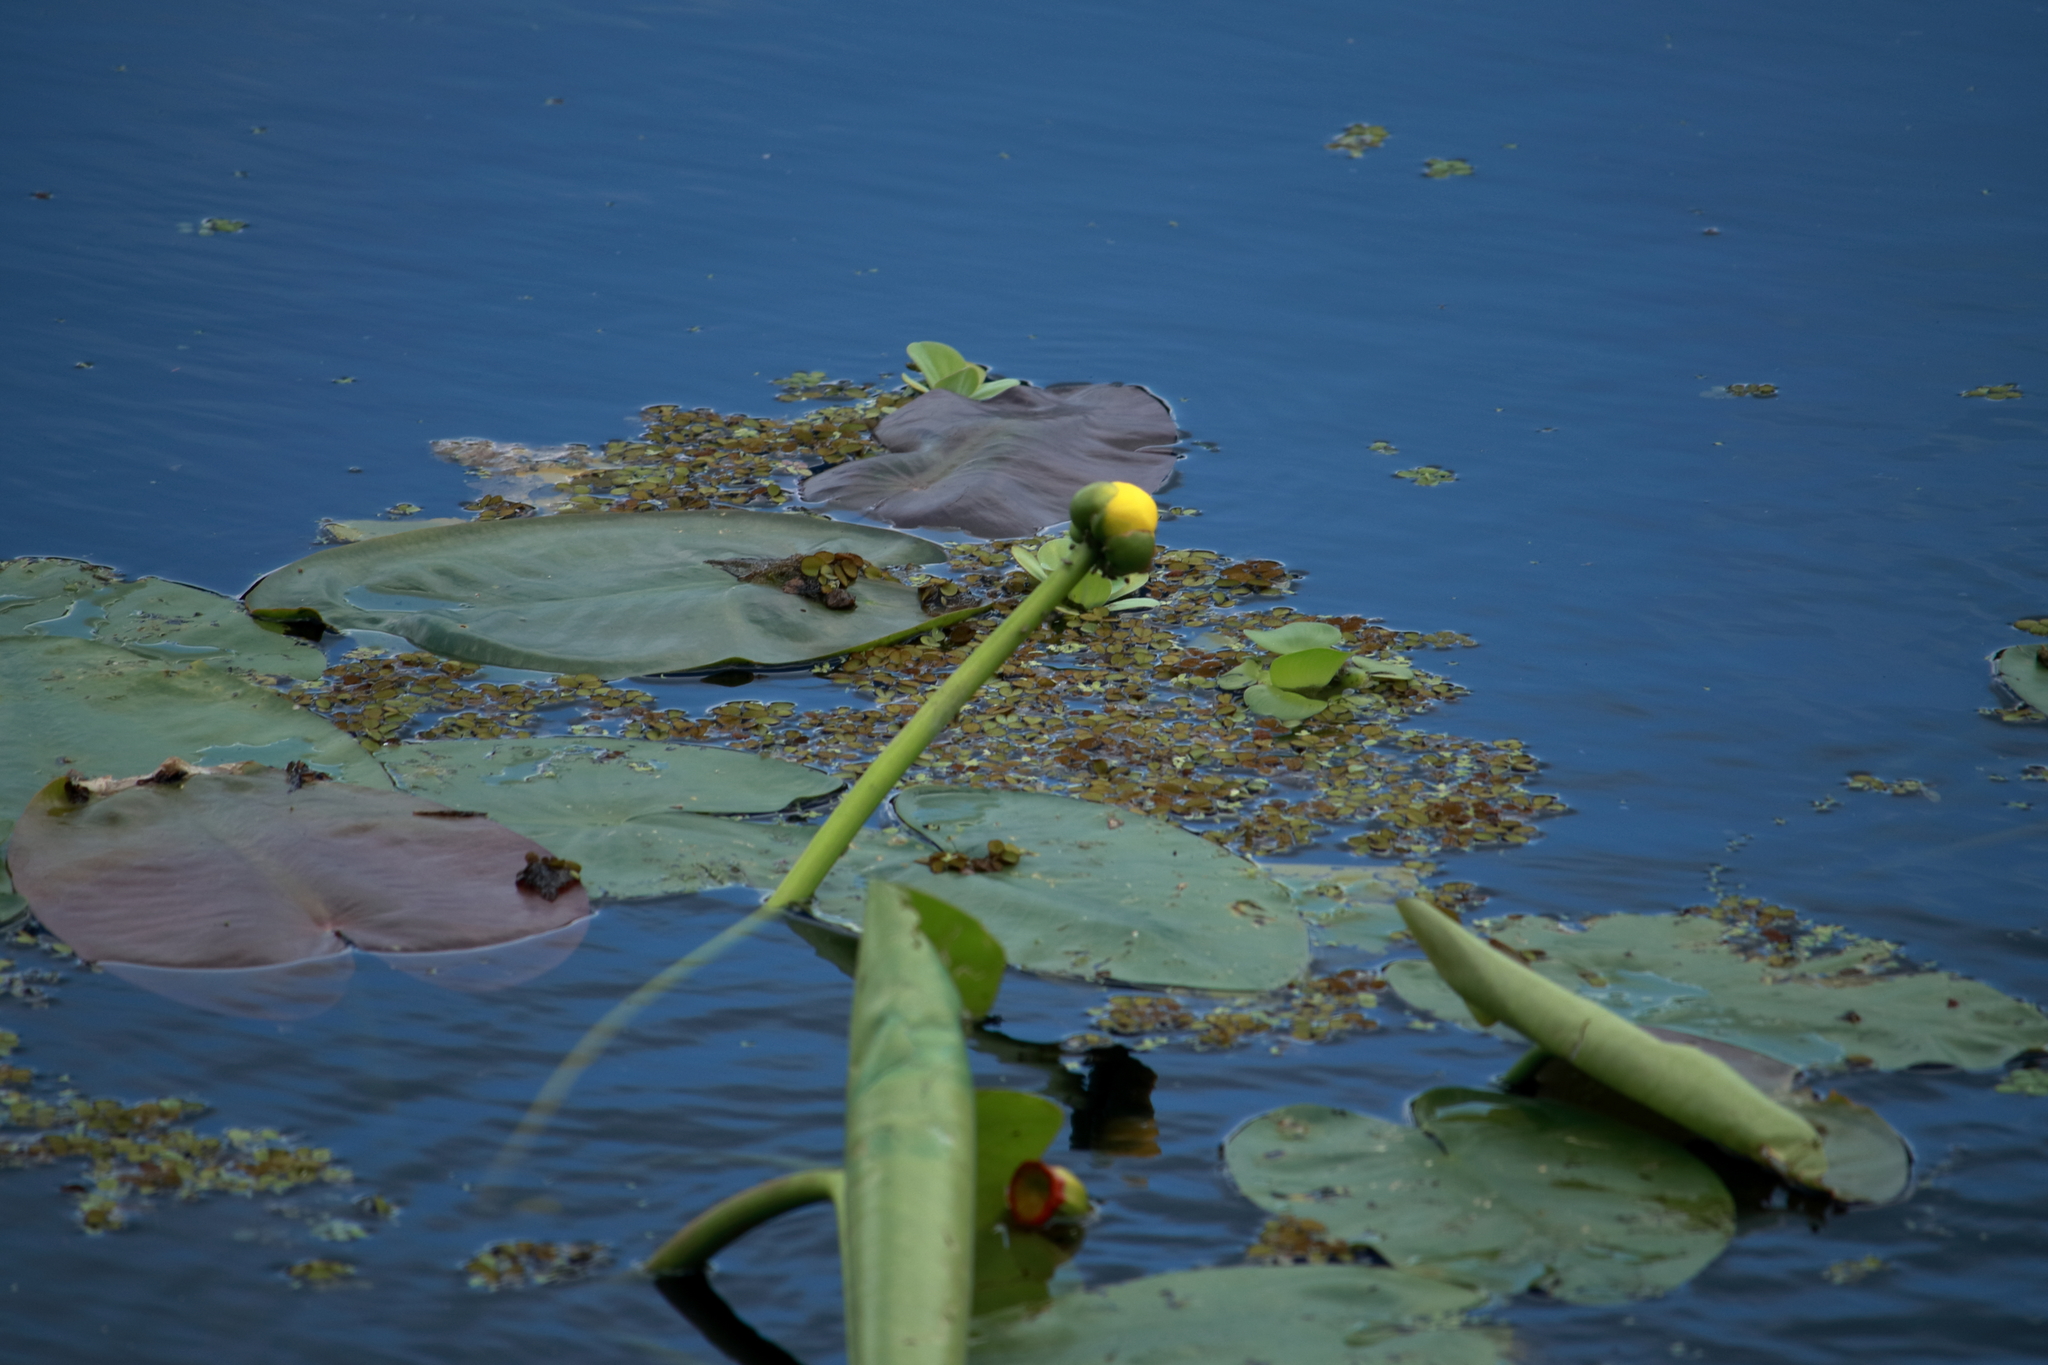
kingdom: Plantae
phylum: Tracheophyta
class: Magnoliopsida
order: Nymphaeales
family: Nymphaeaceae
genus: Nuphar
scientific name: Nuphar advena
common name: Spatter-dock
